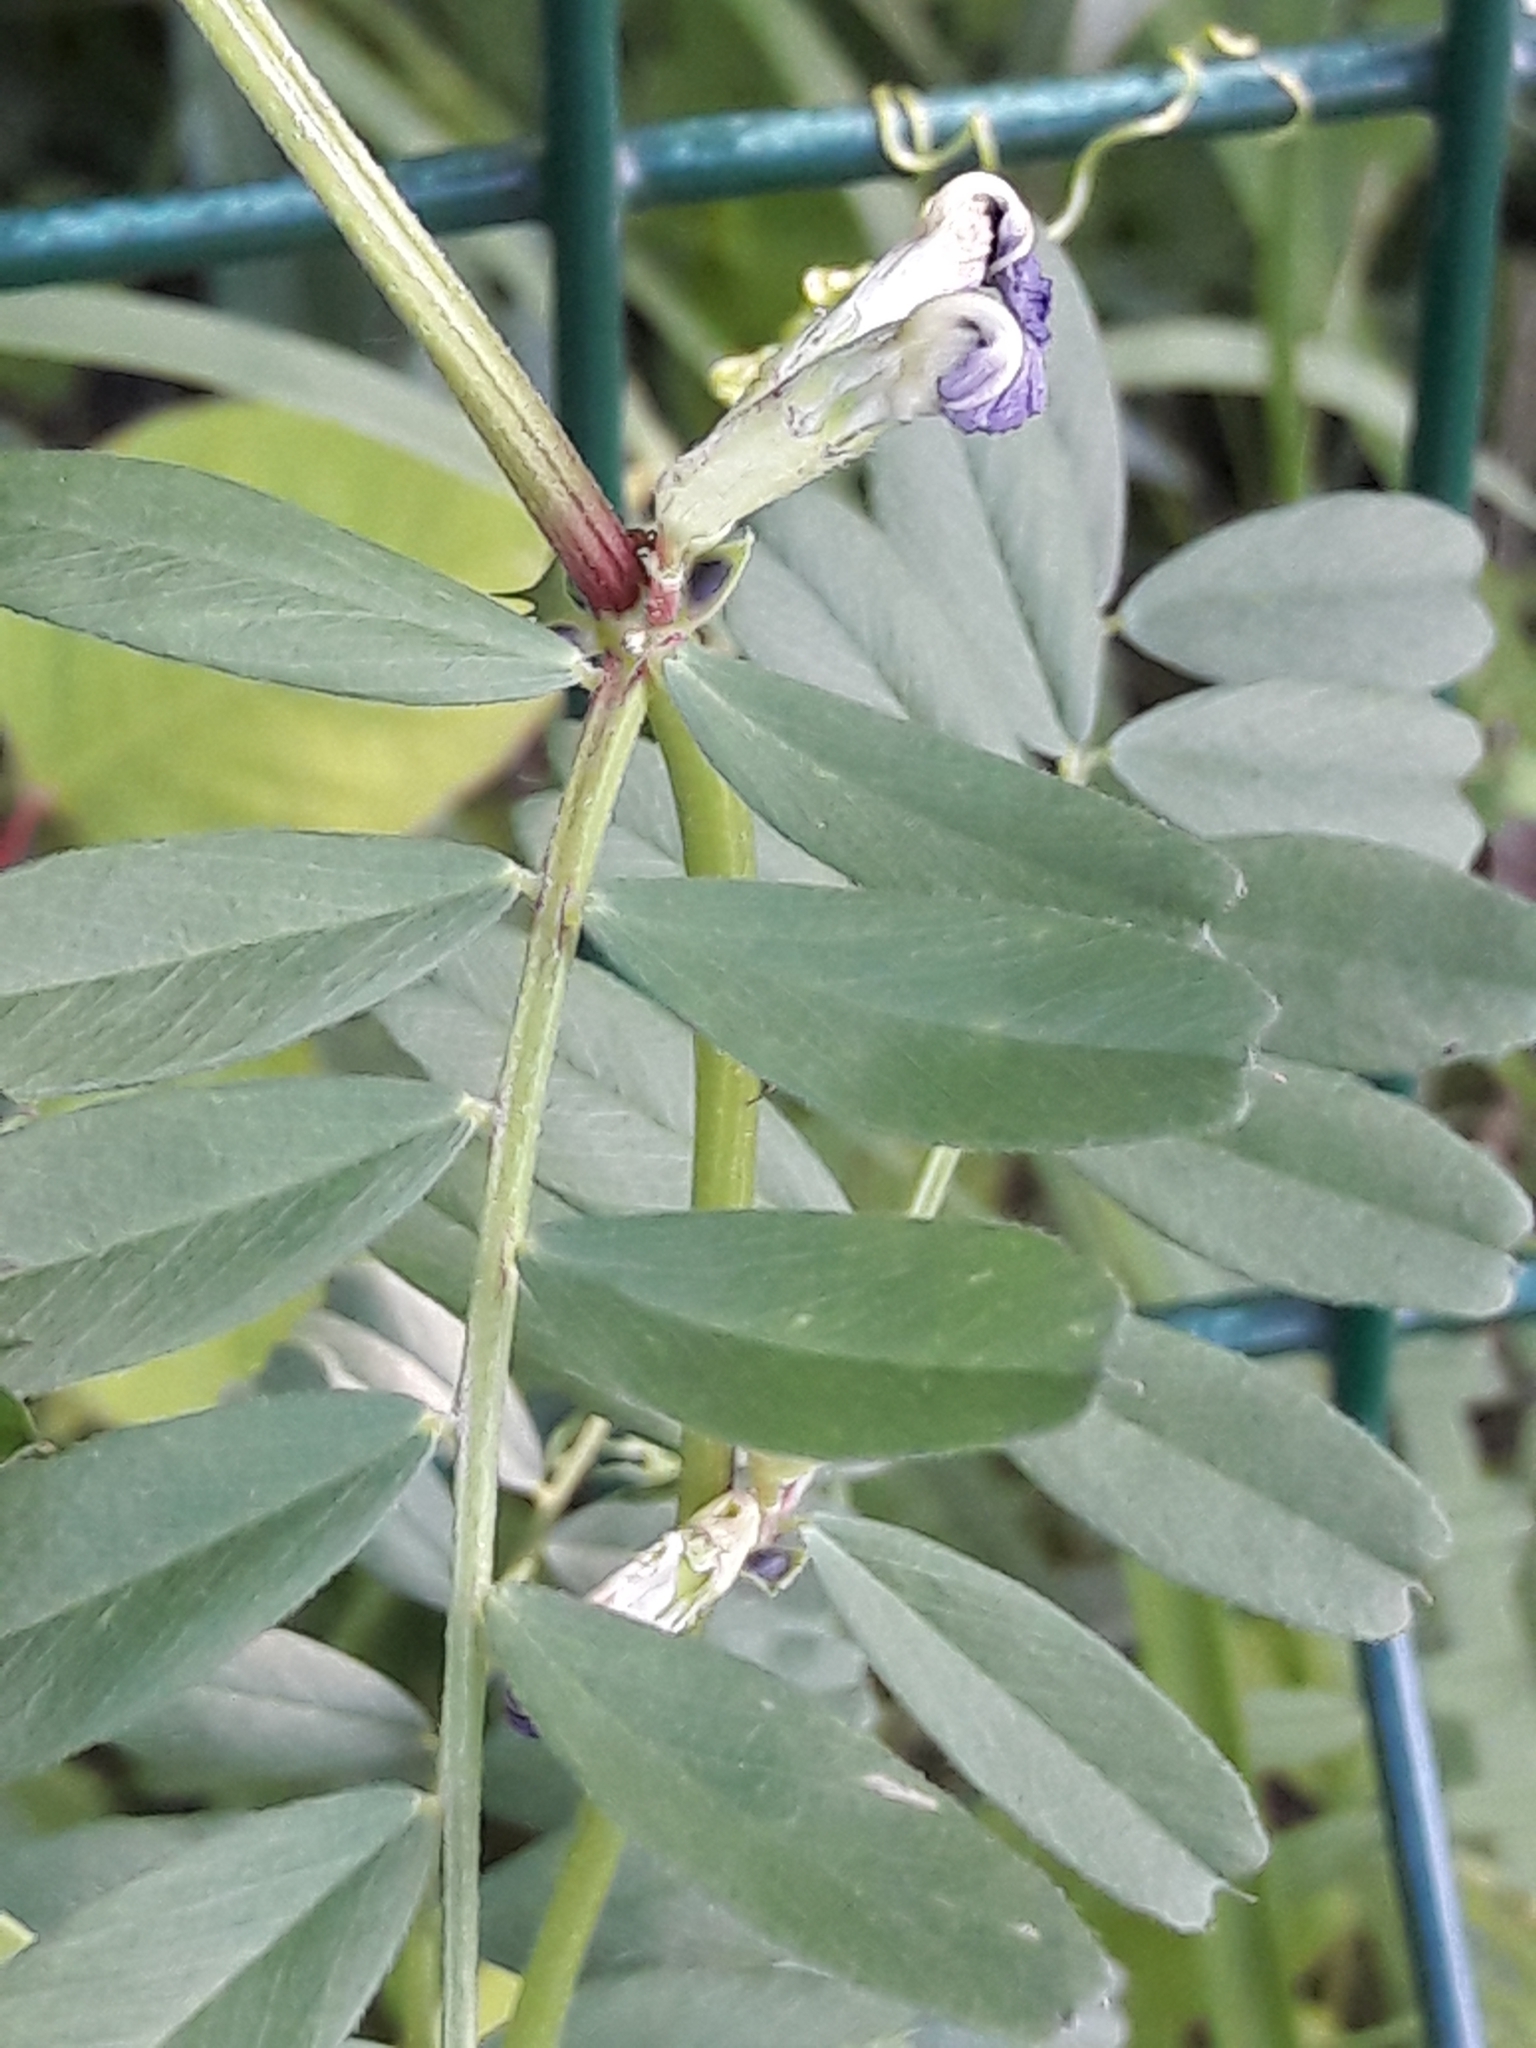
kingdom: Plantae
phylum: Tracheophyta
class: Magnoliopsida
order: Fabales
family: Fabaceae
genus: Vicia
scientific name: Vicia sativa
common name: Garden vetch
